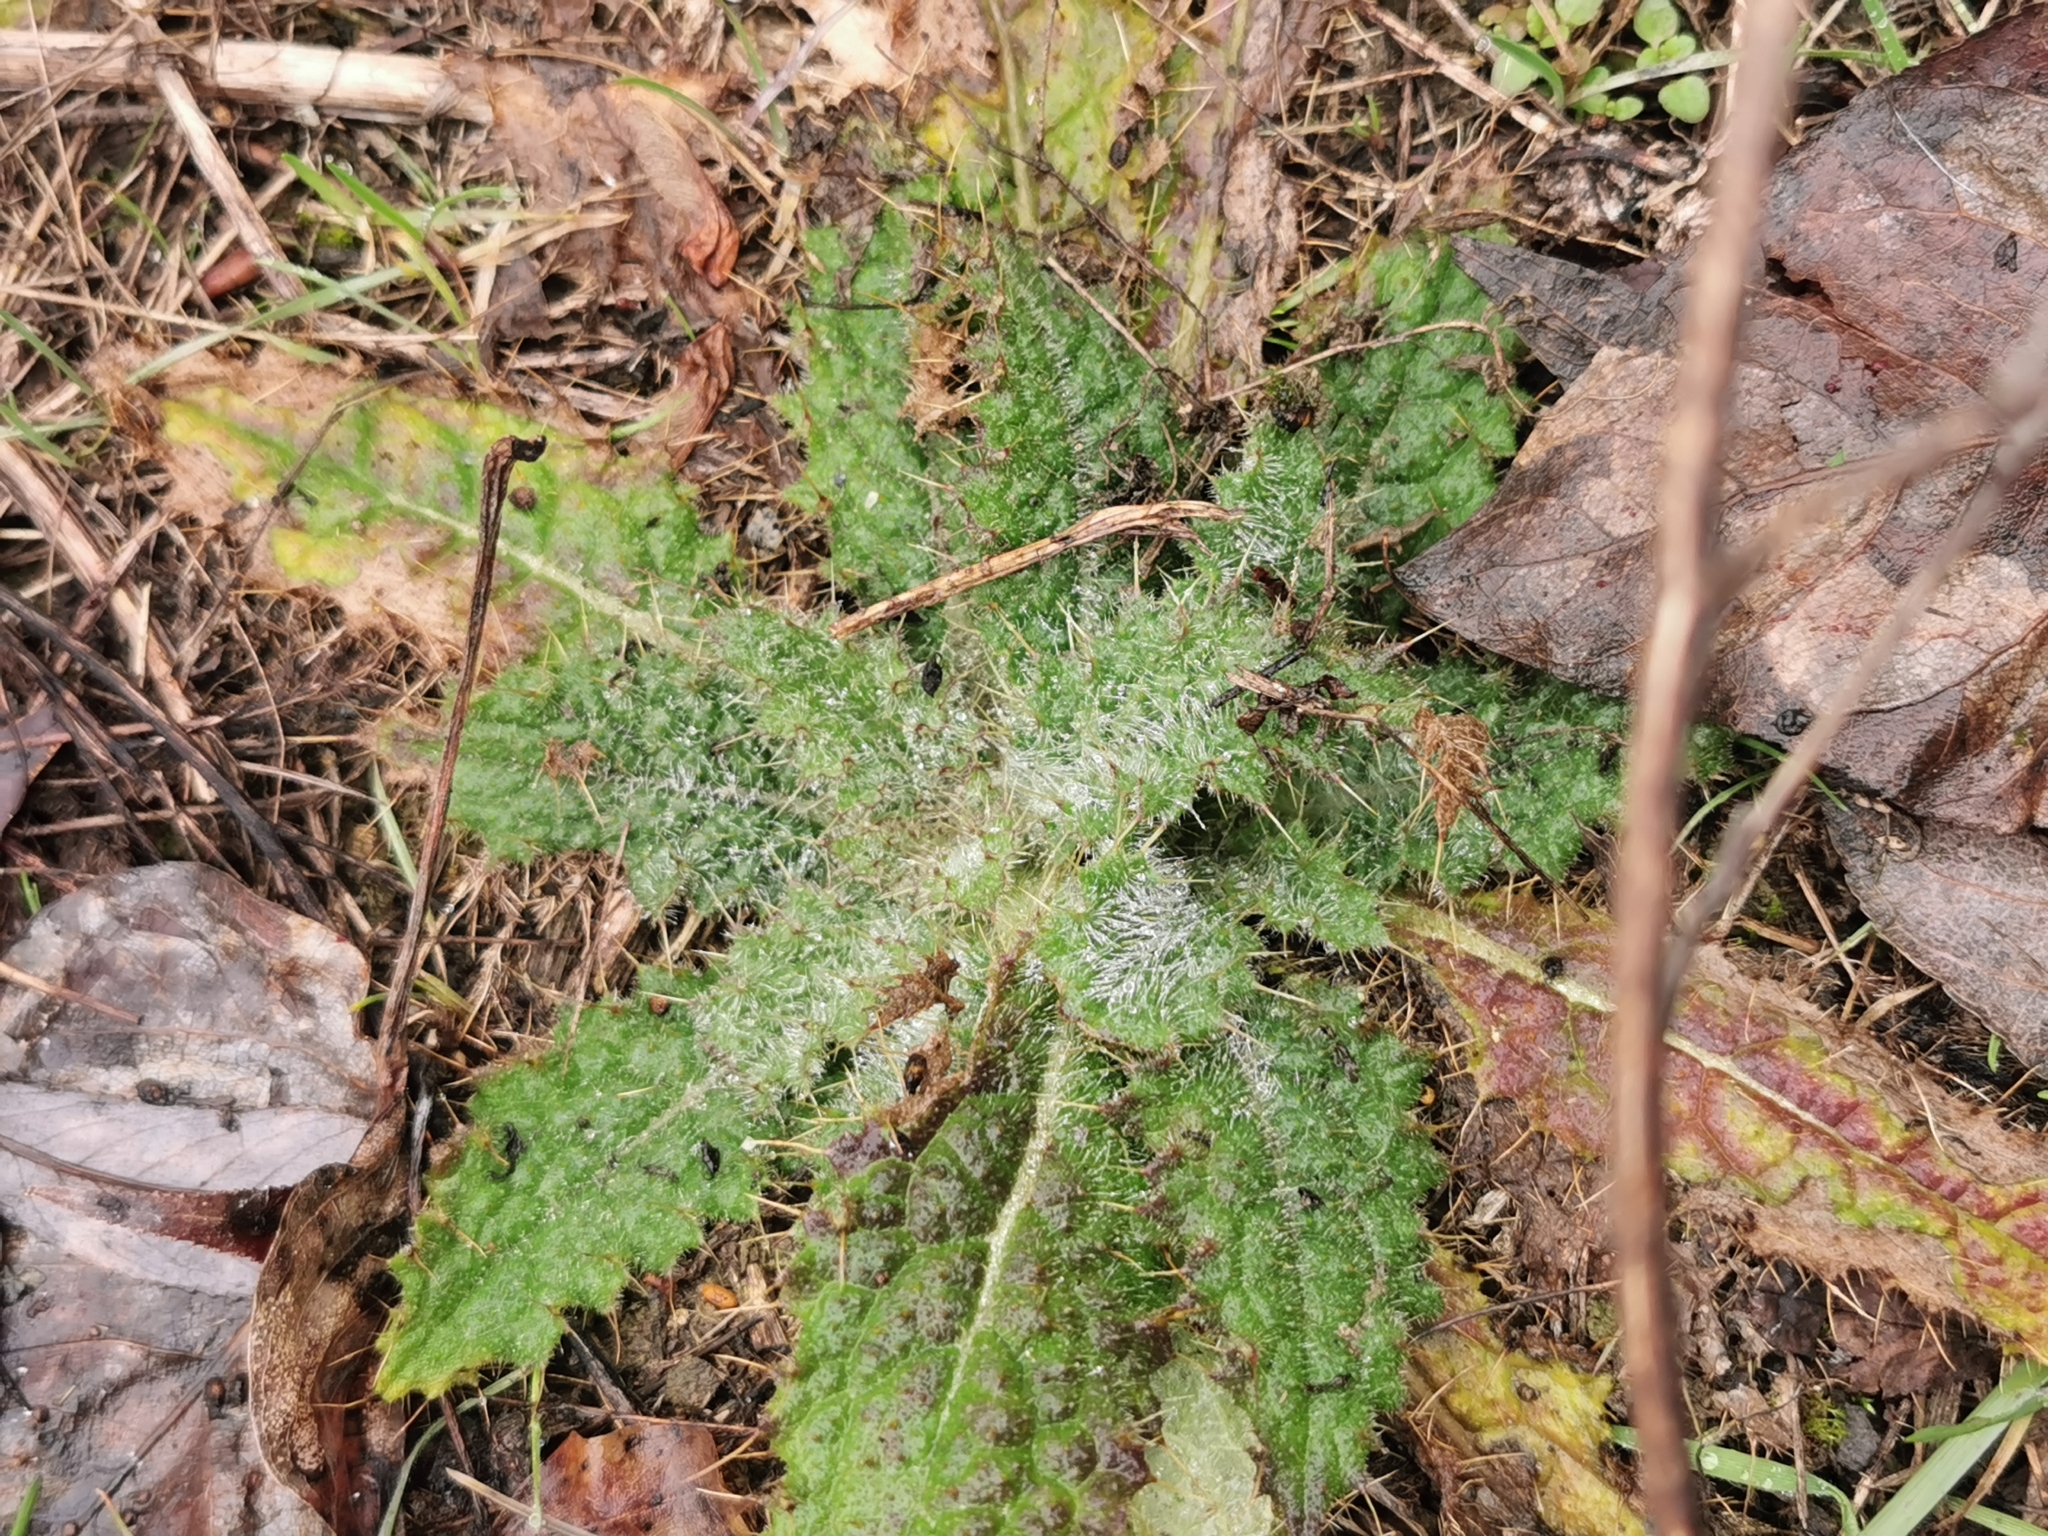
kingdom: Plantae
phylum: Tracheophyta
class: Magnoliopsida
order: Asterales
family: Asteraceae
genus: Cirsium
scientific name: Cirsium vulgare
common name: Bull thistle
